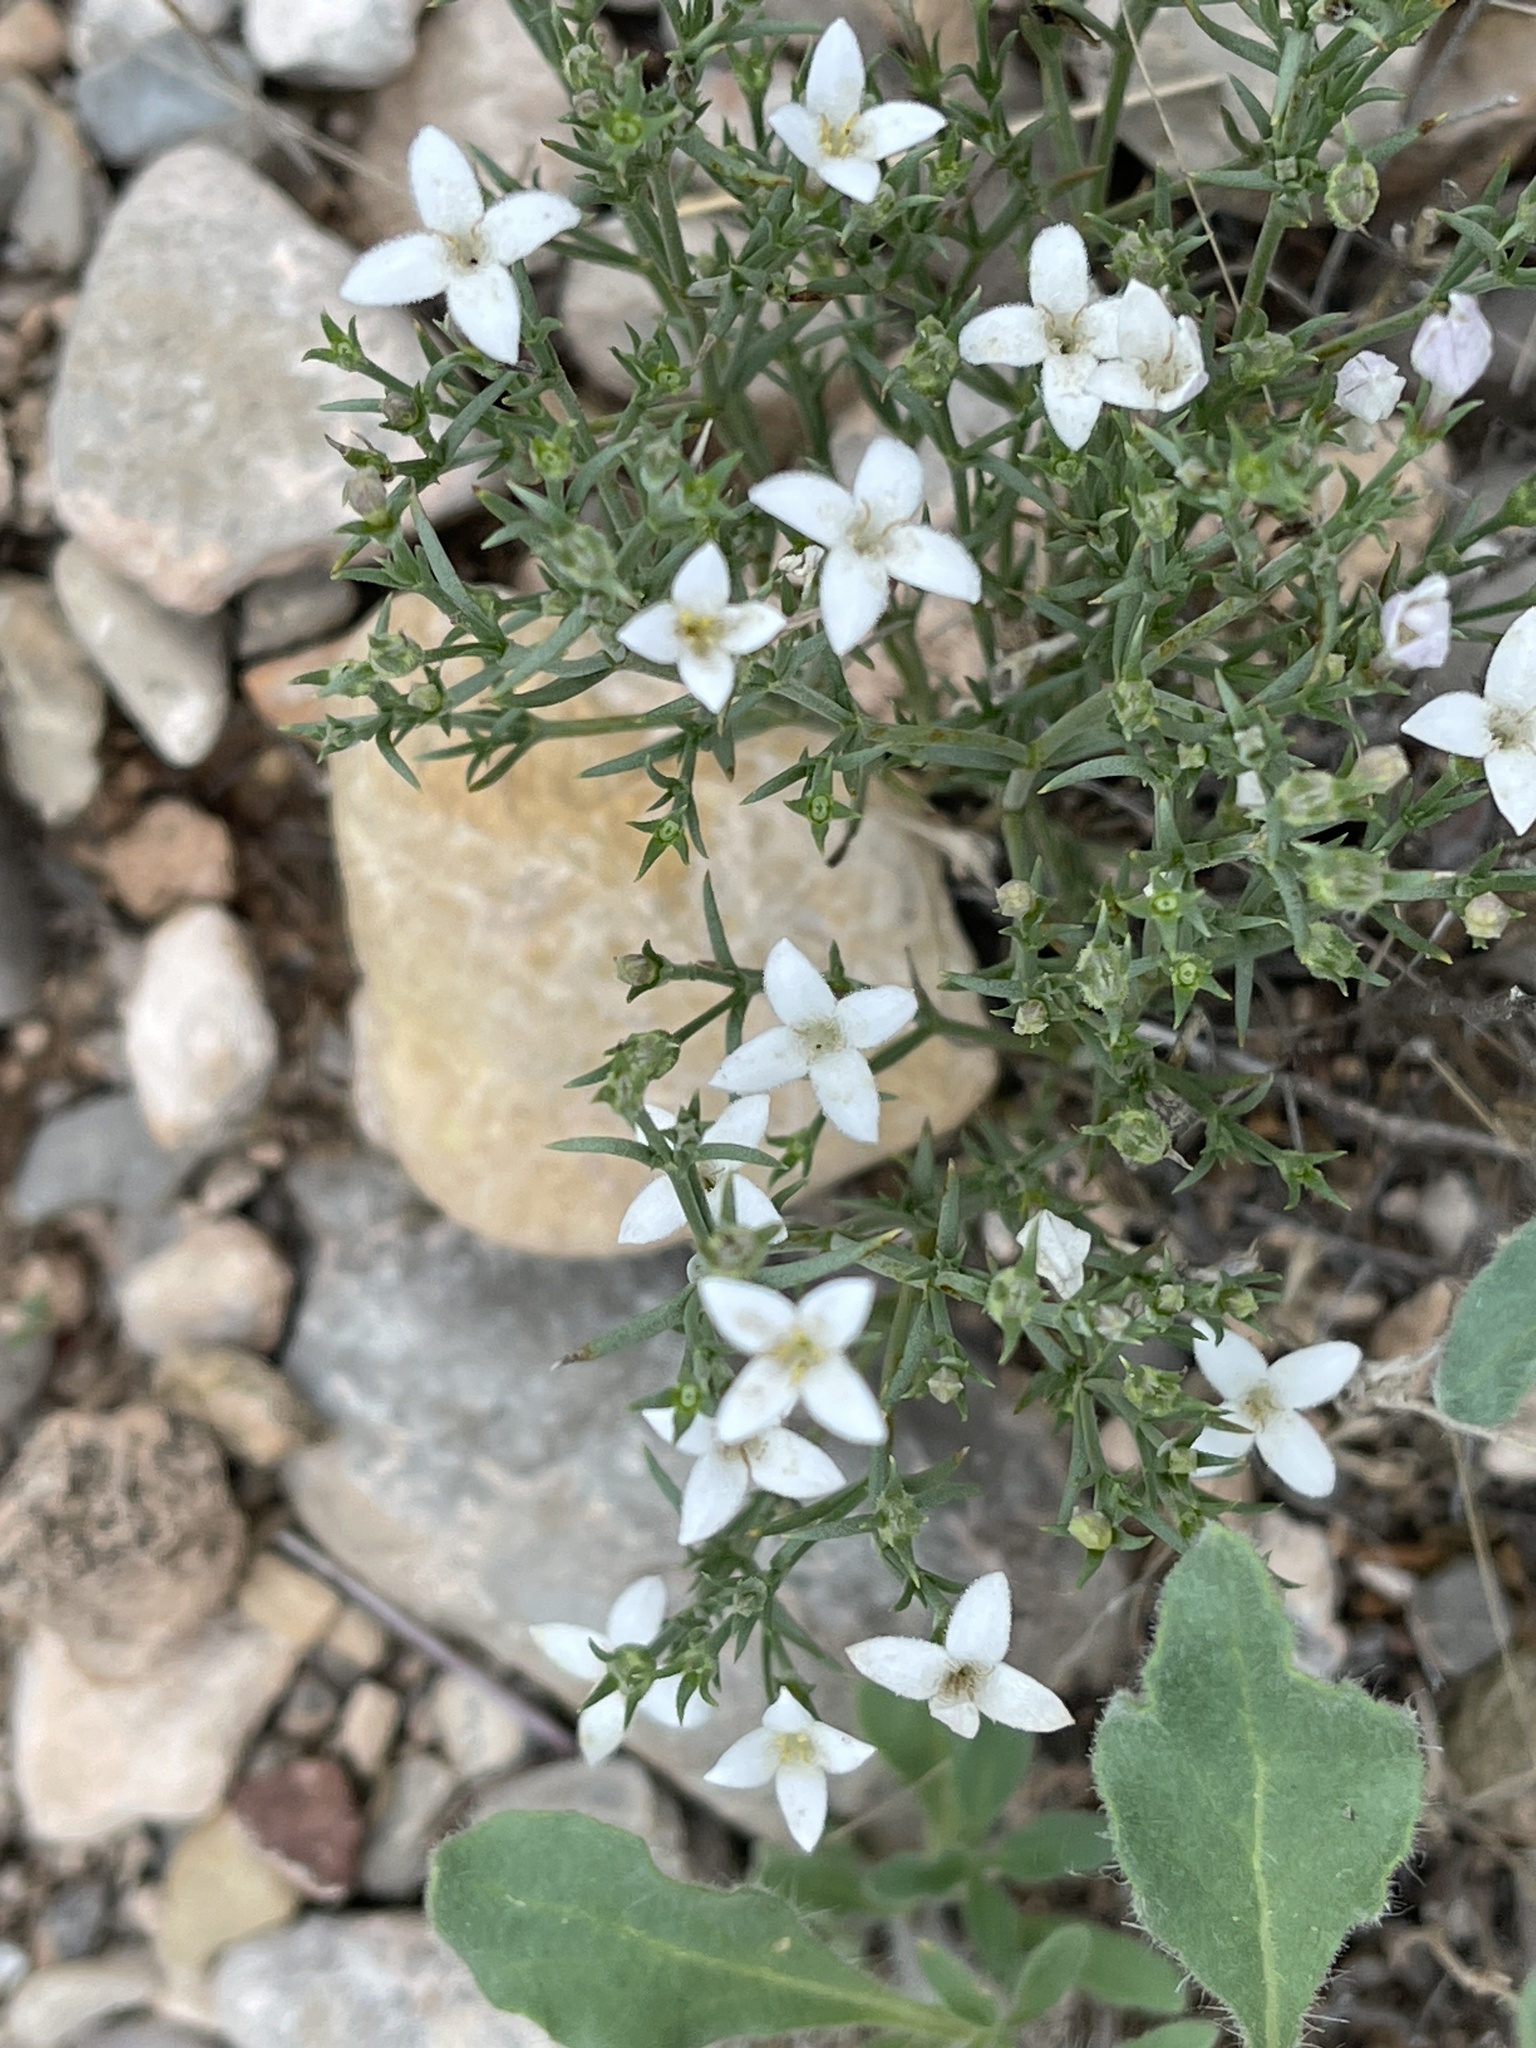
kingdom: Plantae
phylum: Tracheophyta
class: Magnoliopsida
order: Gentianales
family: Rubiaceae
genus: Houstonia
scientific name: Houstonia acerosa
